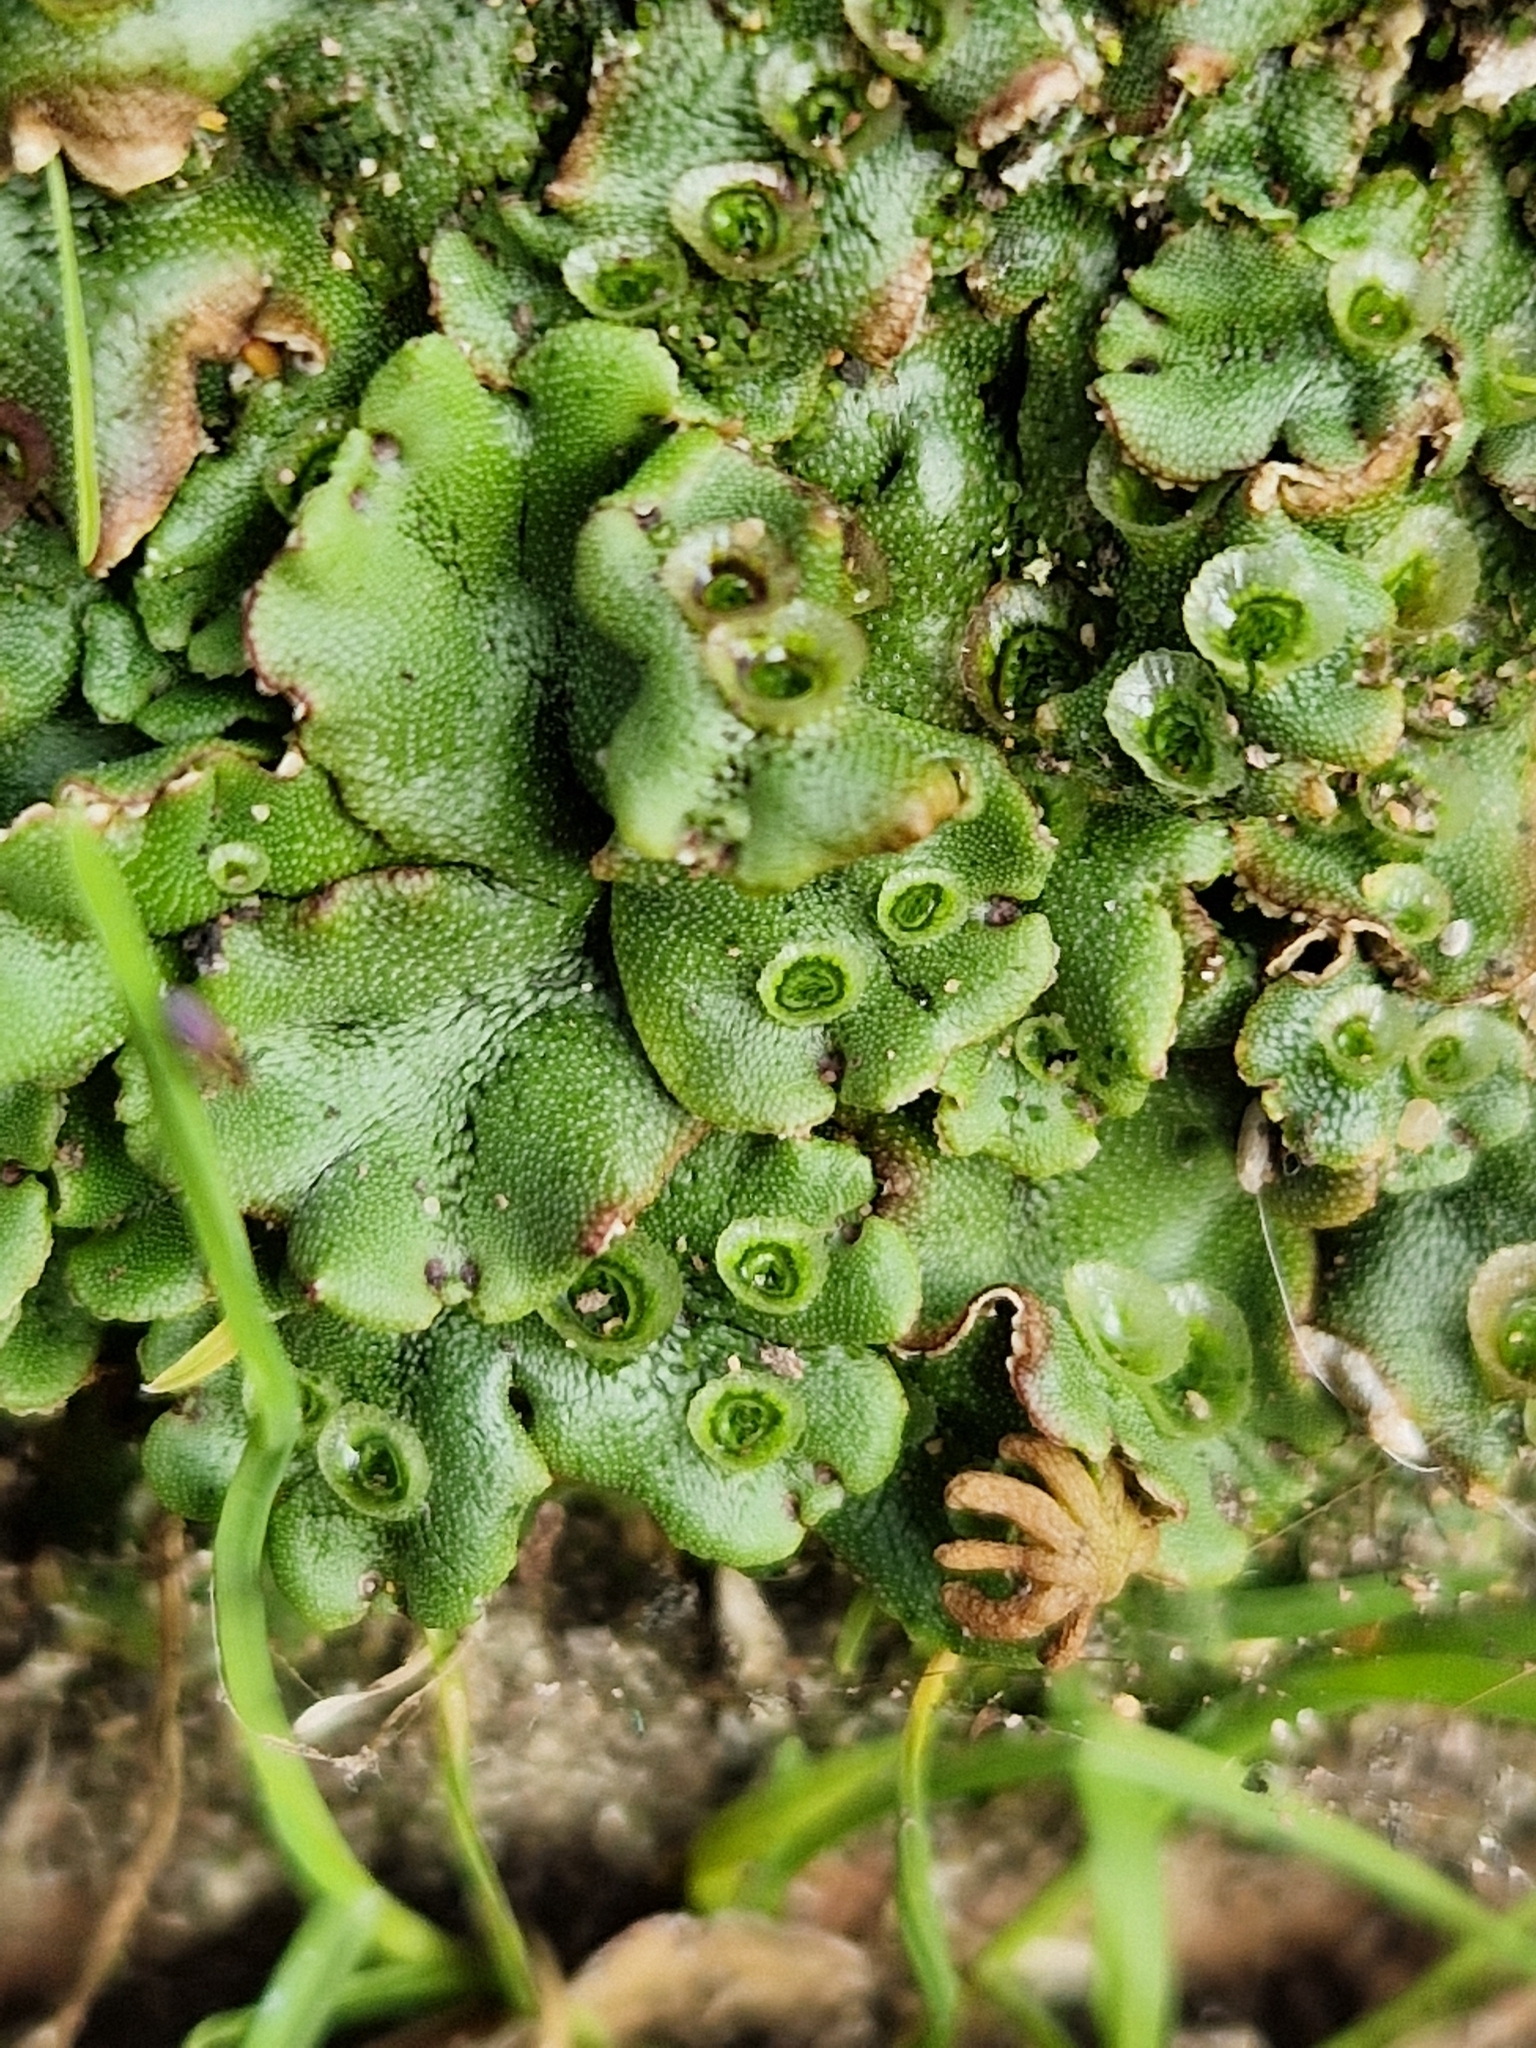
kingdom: Plantae
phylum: Marchantiophyta
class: Marchantiopsida
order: Marchantiales
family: Marchantiaceae
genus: Marchantia
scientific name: Marchantia polymorpha
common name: Common liverwort
